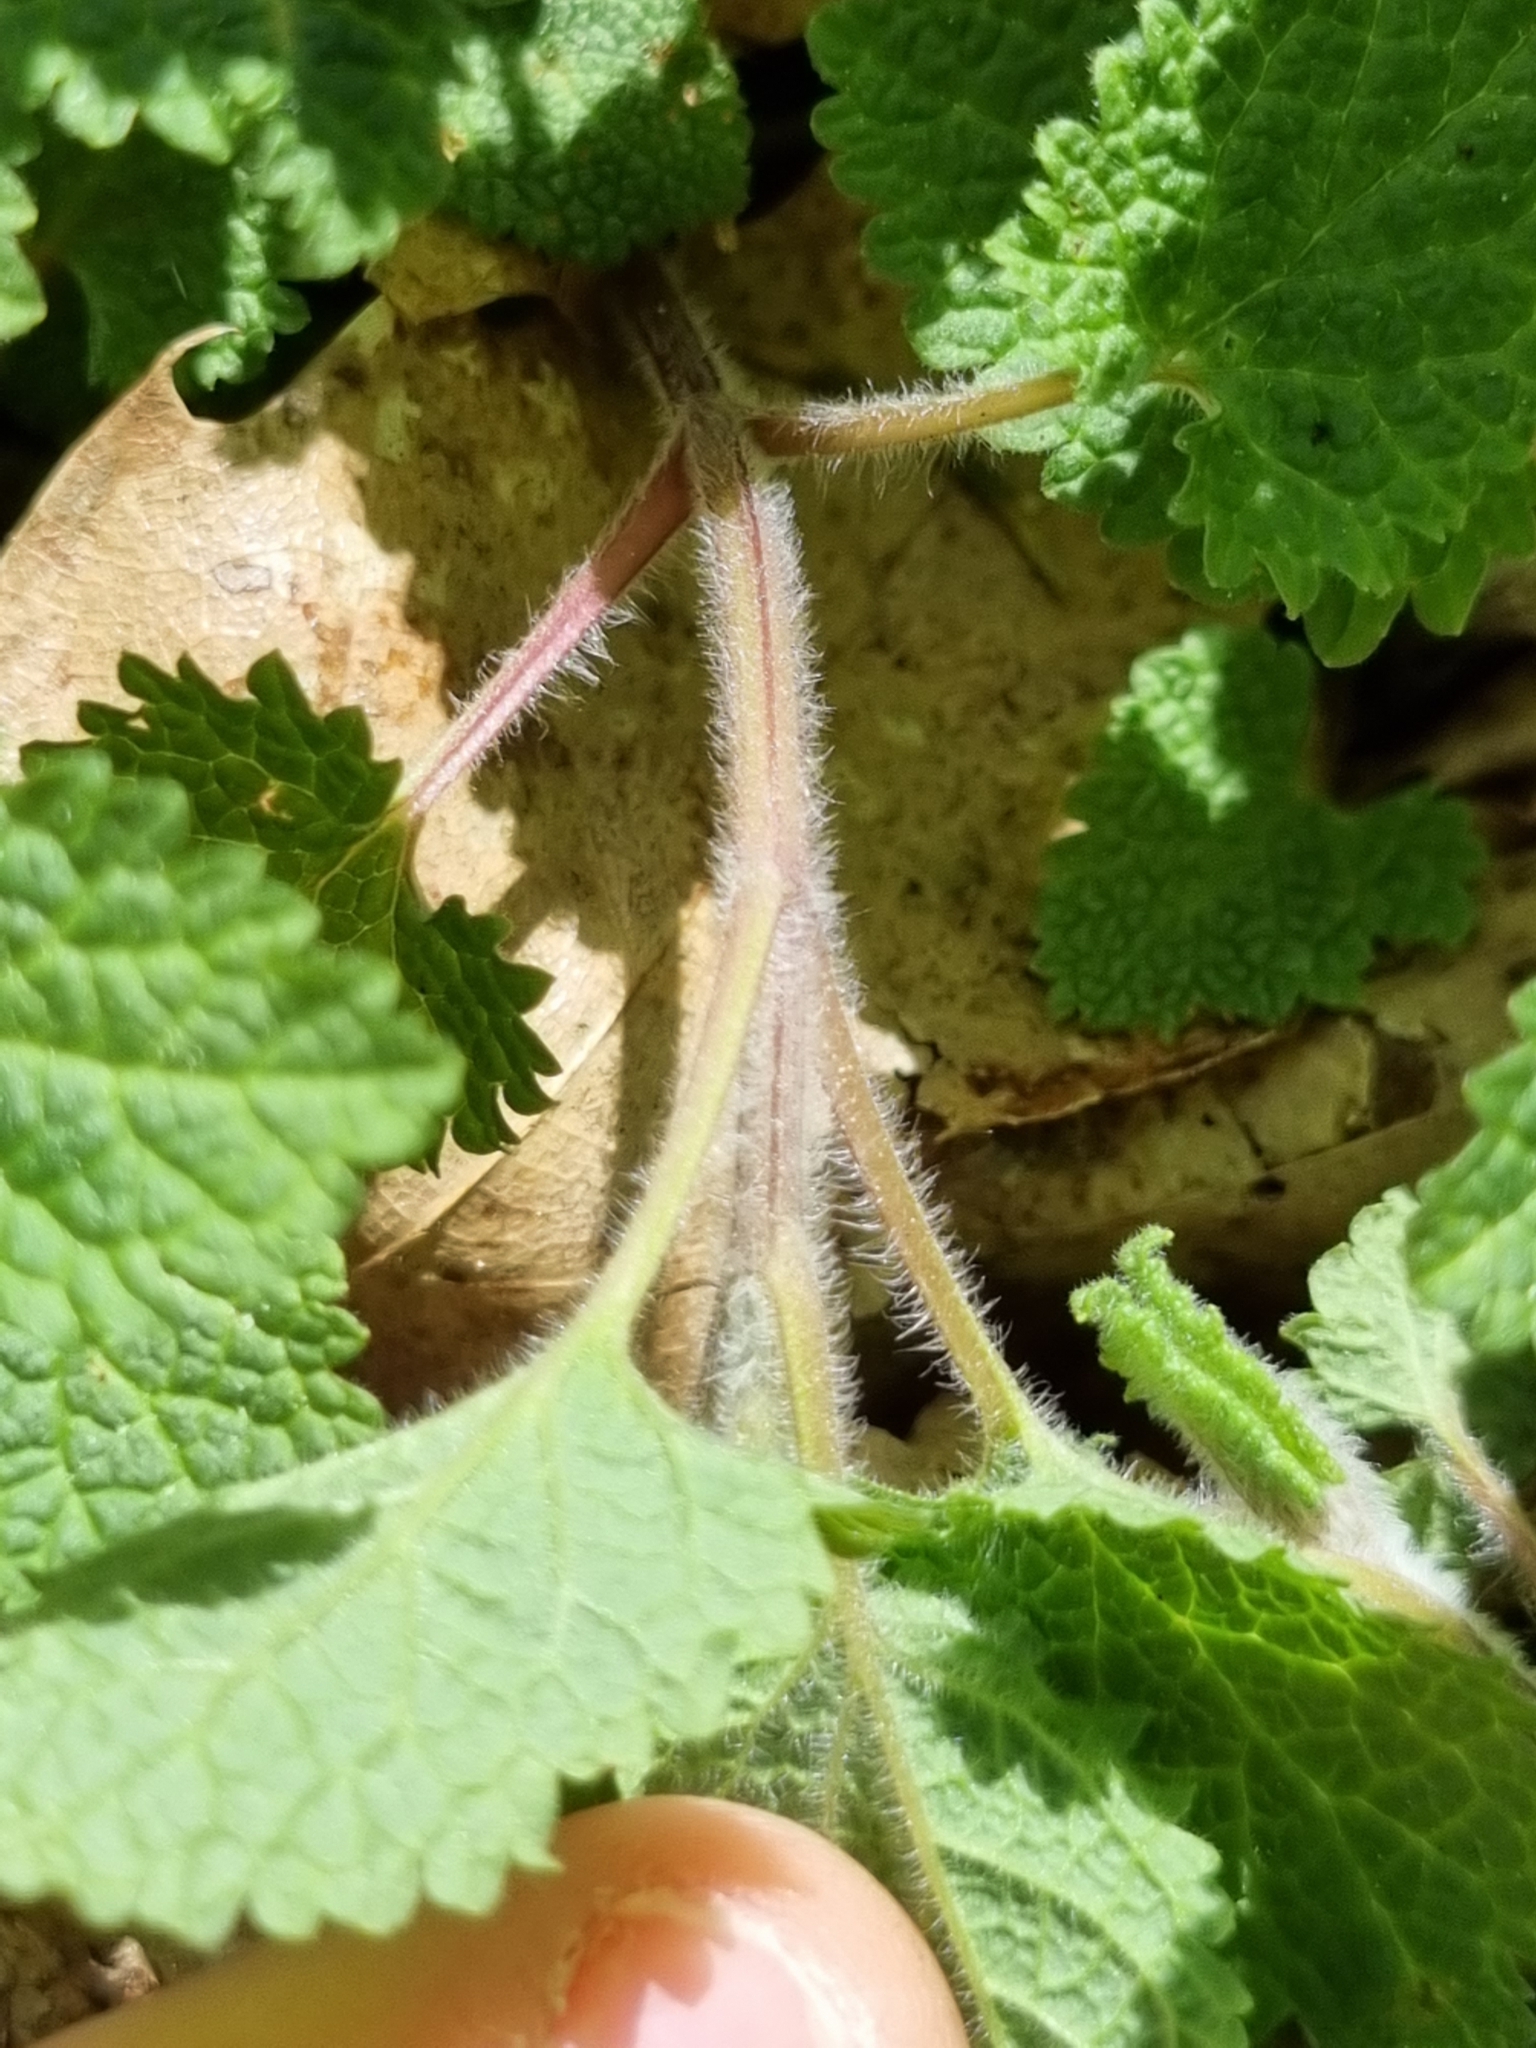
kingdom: Plantae
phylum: Tracheophyta
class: Magnoliopsida
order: Lamiales
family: Lamiaceae
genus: Teucrium
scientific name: Teucrium scorodonia
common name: Woodland germander
